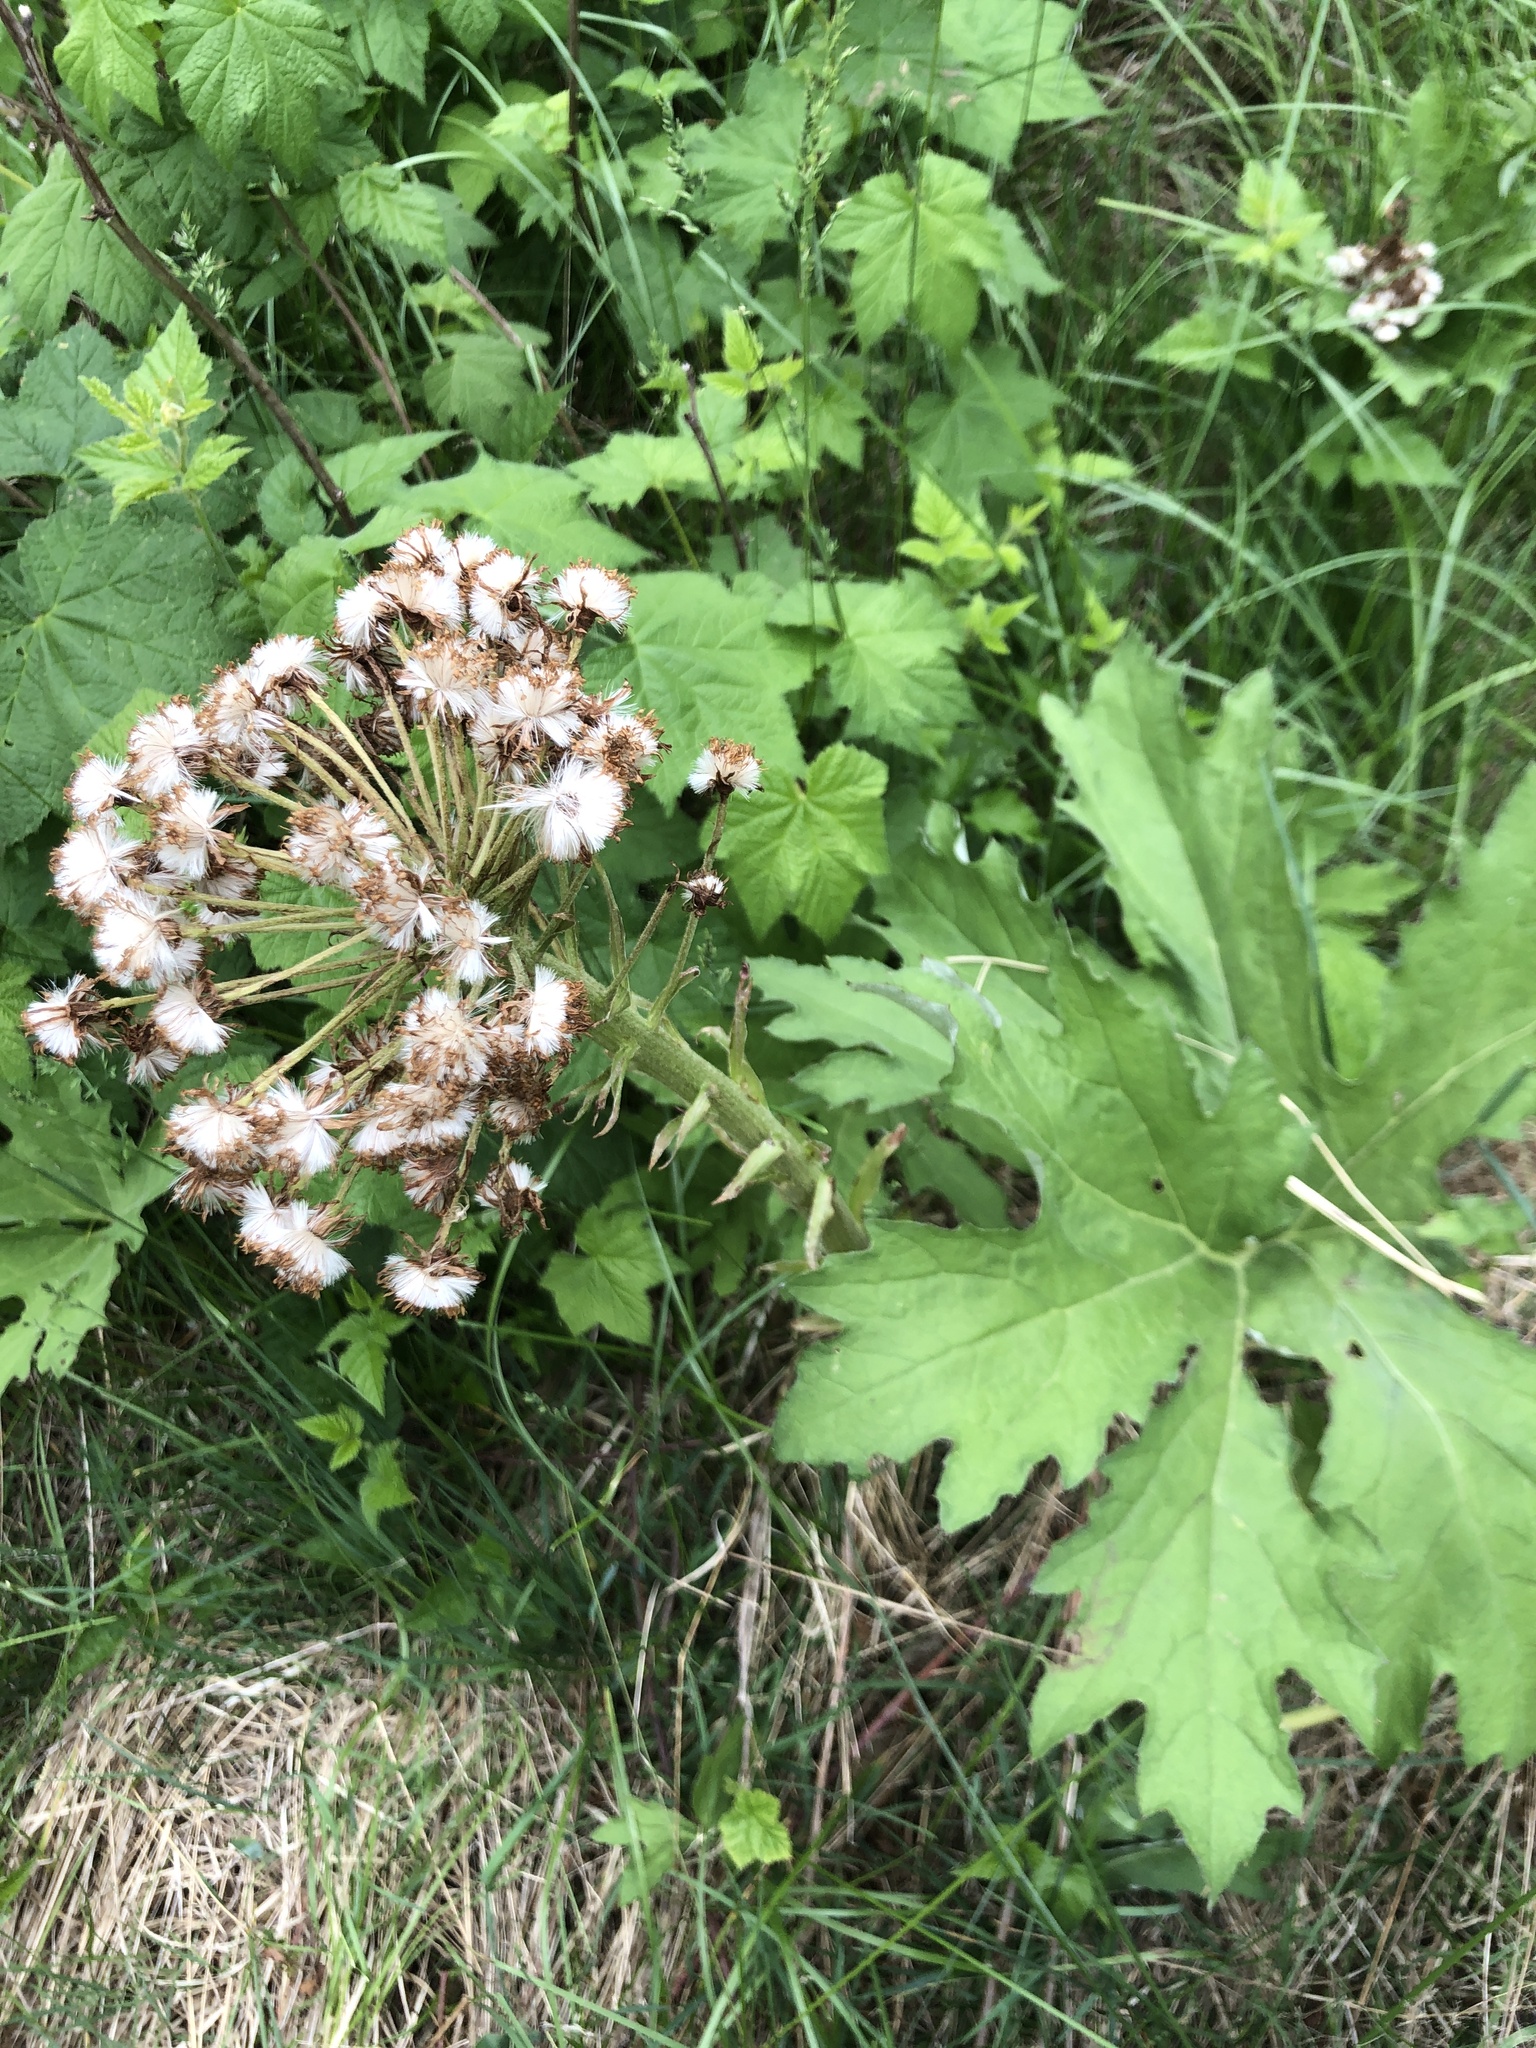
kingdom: Plantae
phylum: Tracheophyta
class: Magnoliopsida
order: Asterales
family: Asteraceae
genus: Petasites
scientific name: Petasites frigidus
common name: Arctic butterbur
